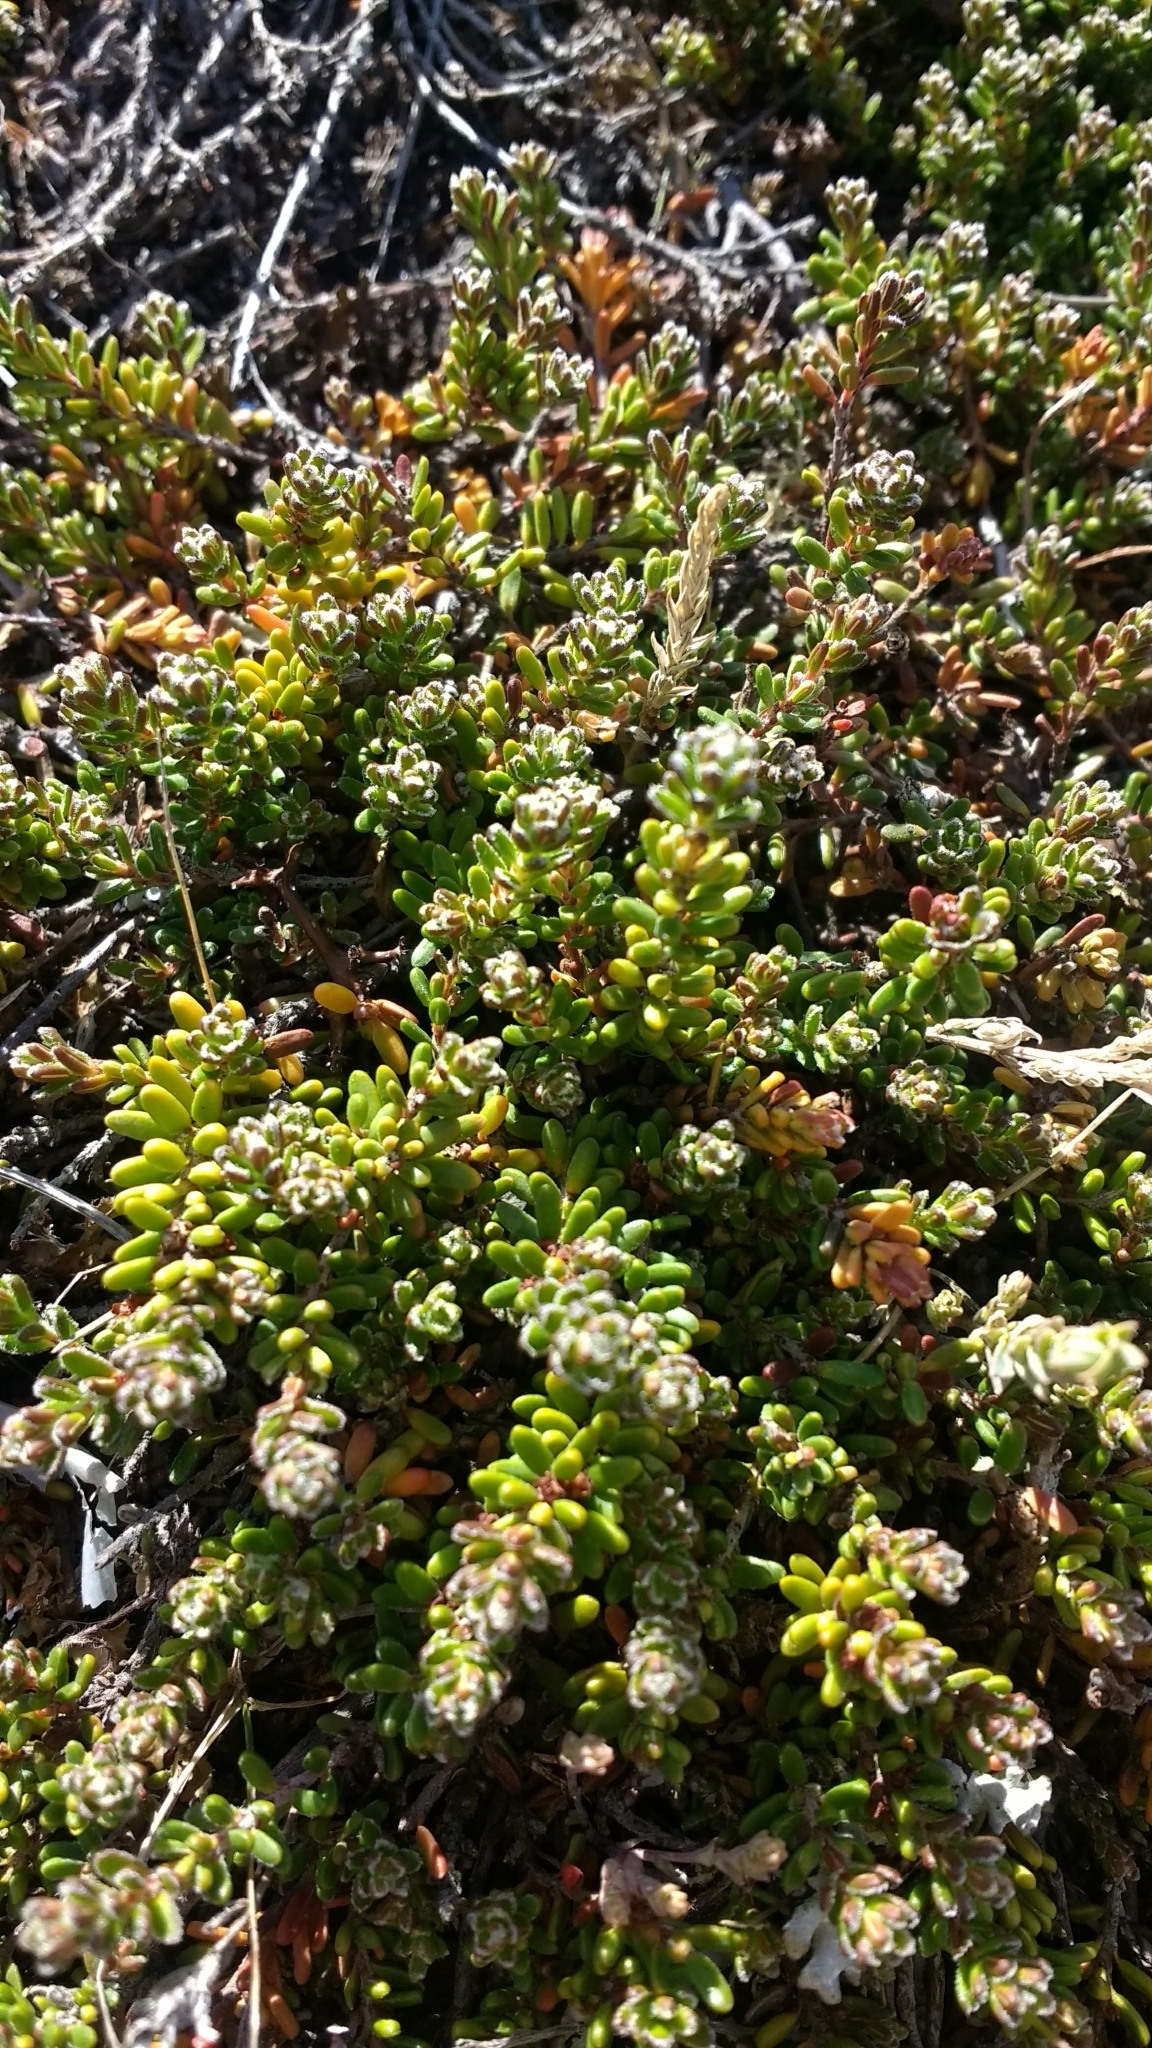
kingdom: Plantae
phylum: Tracheophyta
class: Magnoliopsida
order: Ericales
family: Ericaceae
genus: Empetrum
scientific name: Empetrum rubrum
